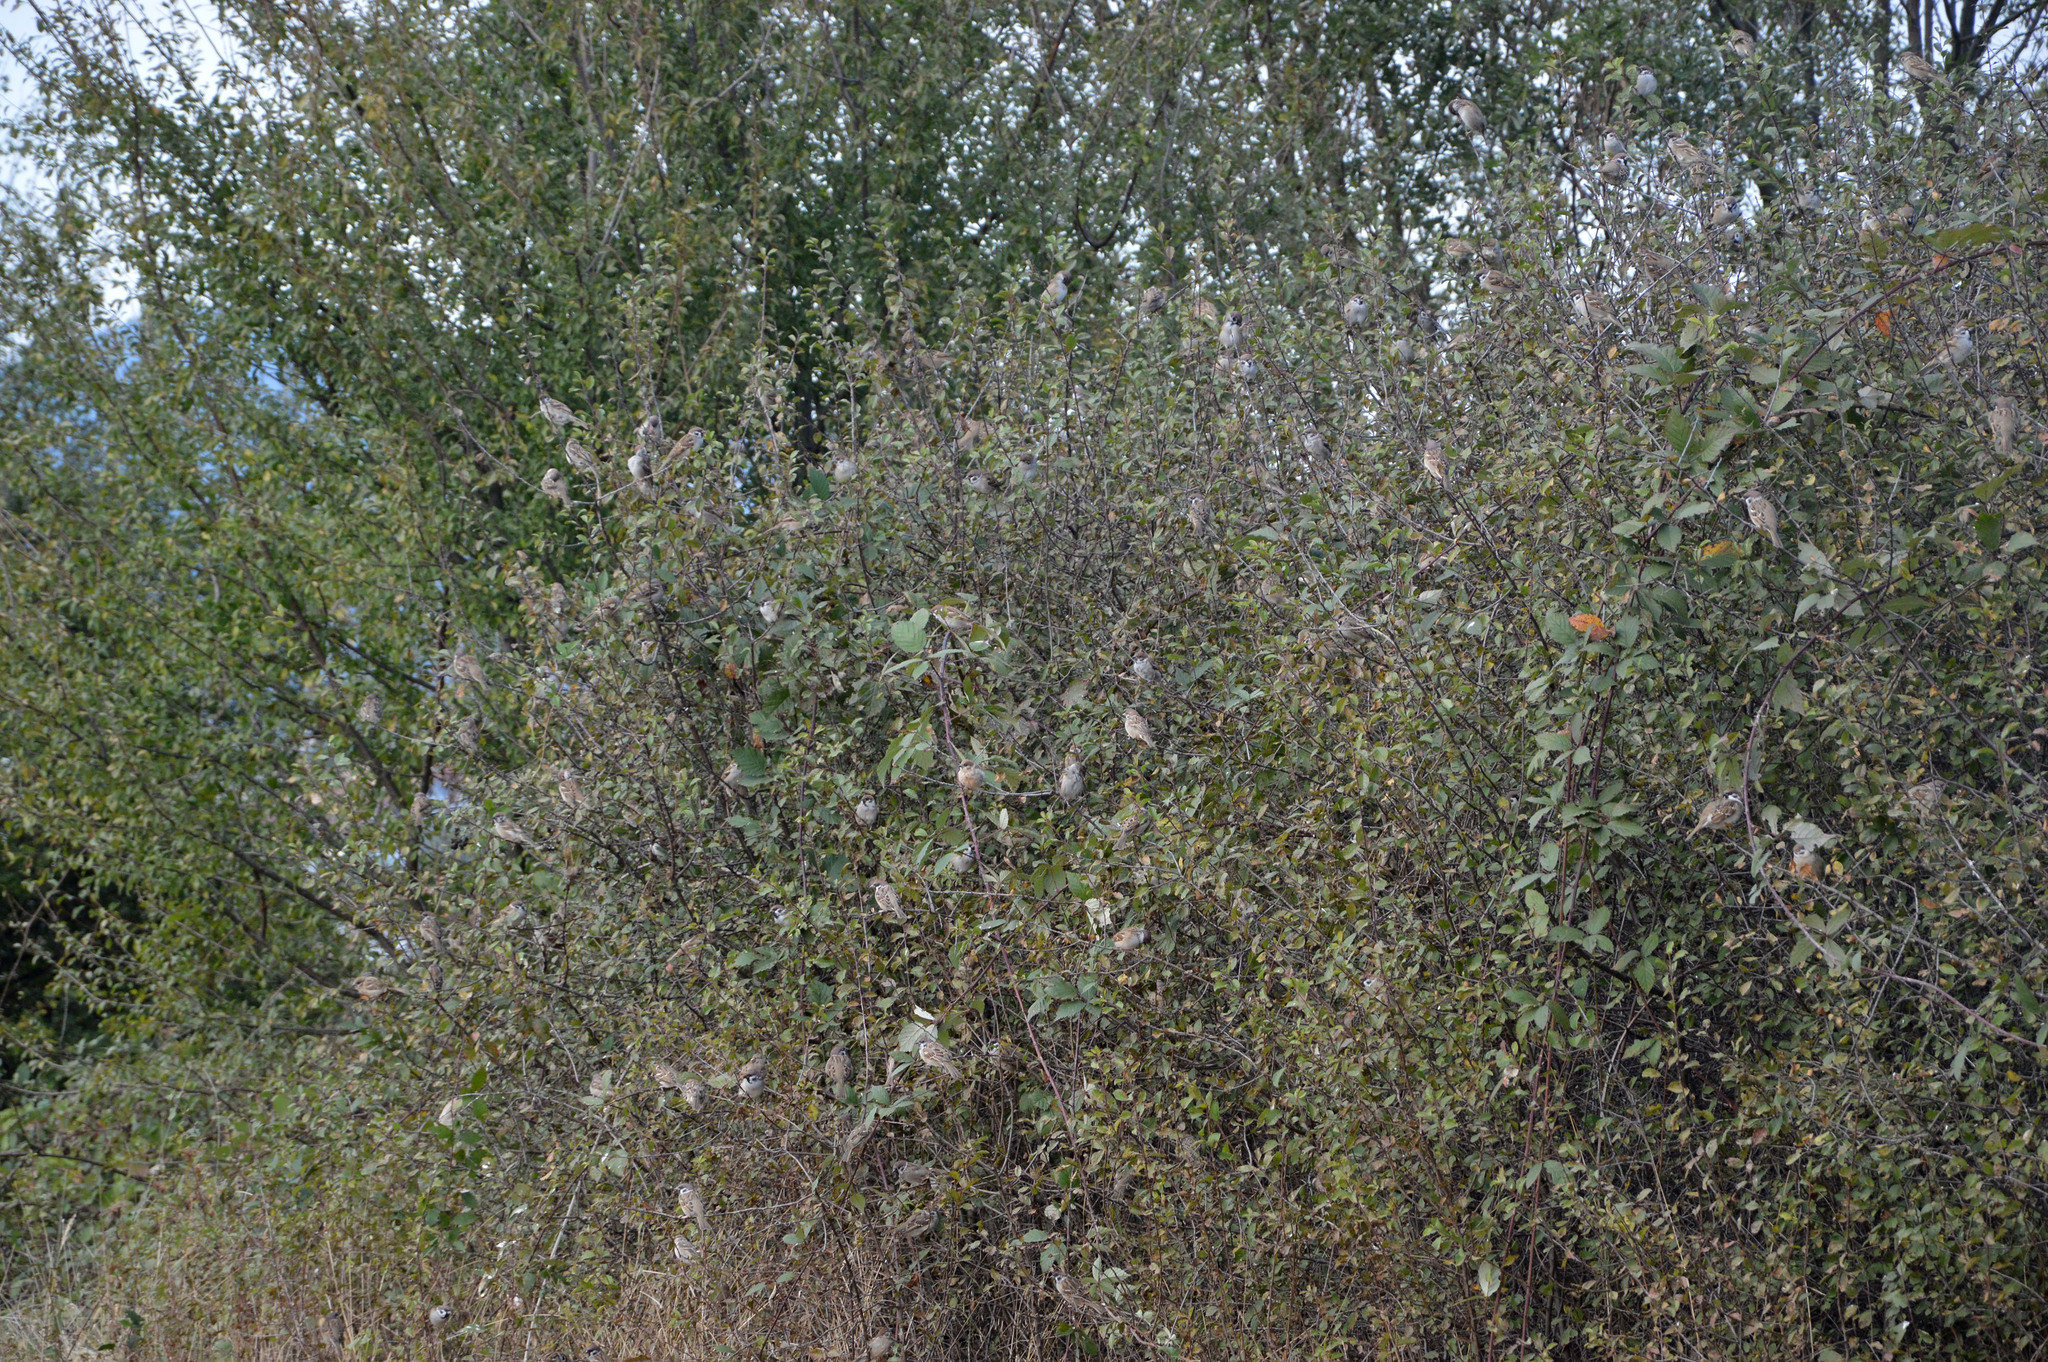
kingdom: Animalia
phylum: Chordata
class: Aves
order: Passeriformes
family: Passeridae
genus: Passer
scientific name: Passer montanus
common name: Eurasian tree sparrow
